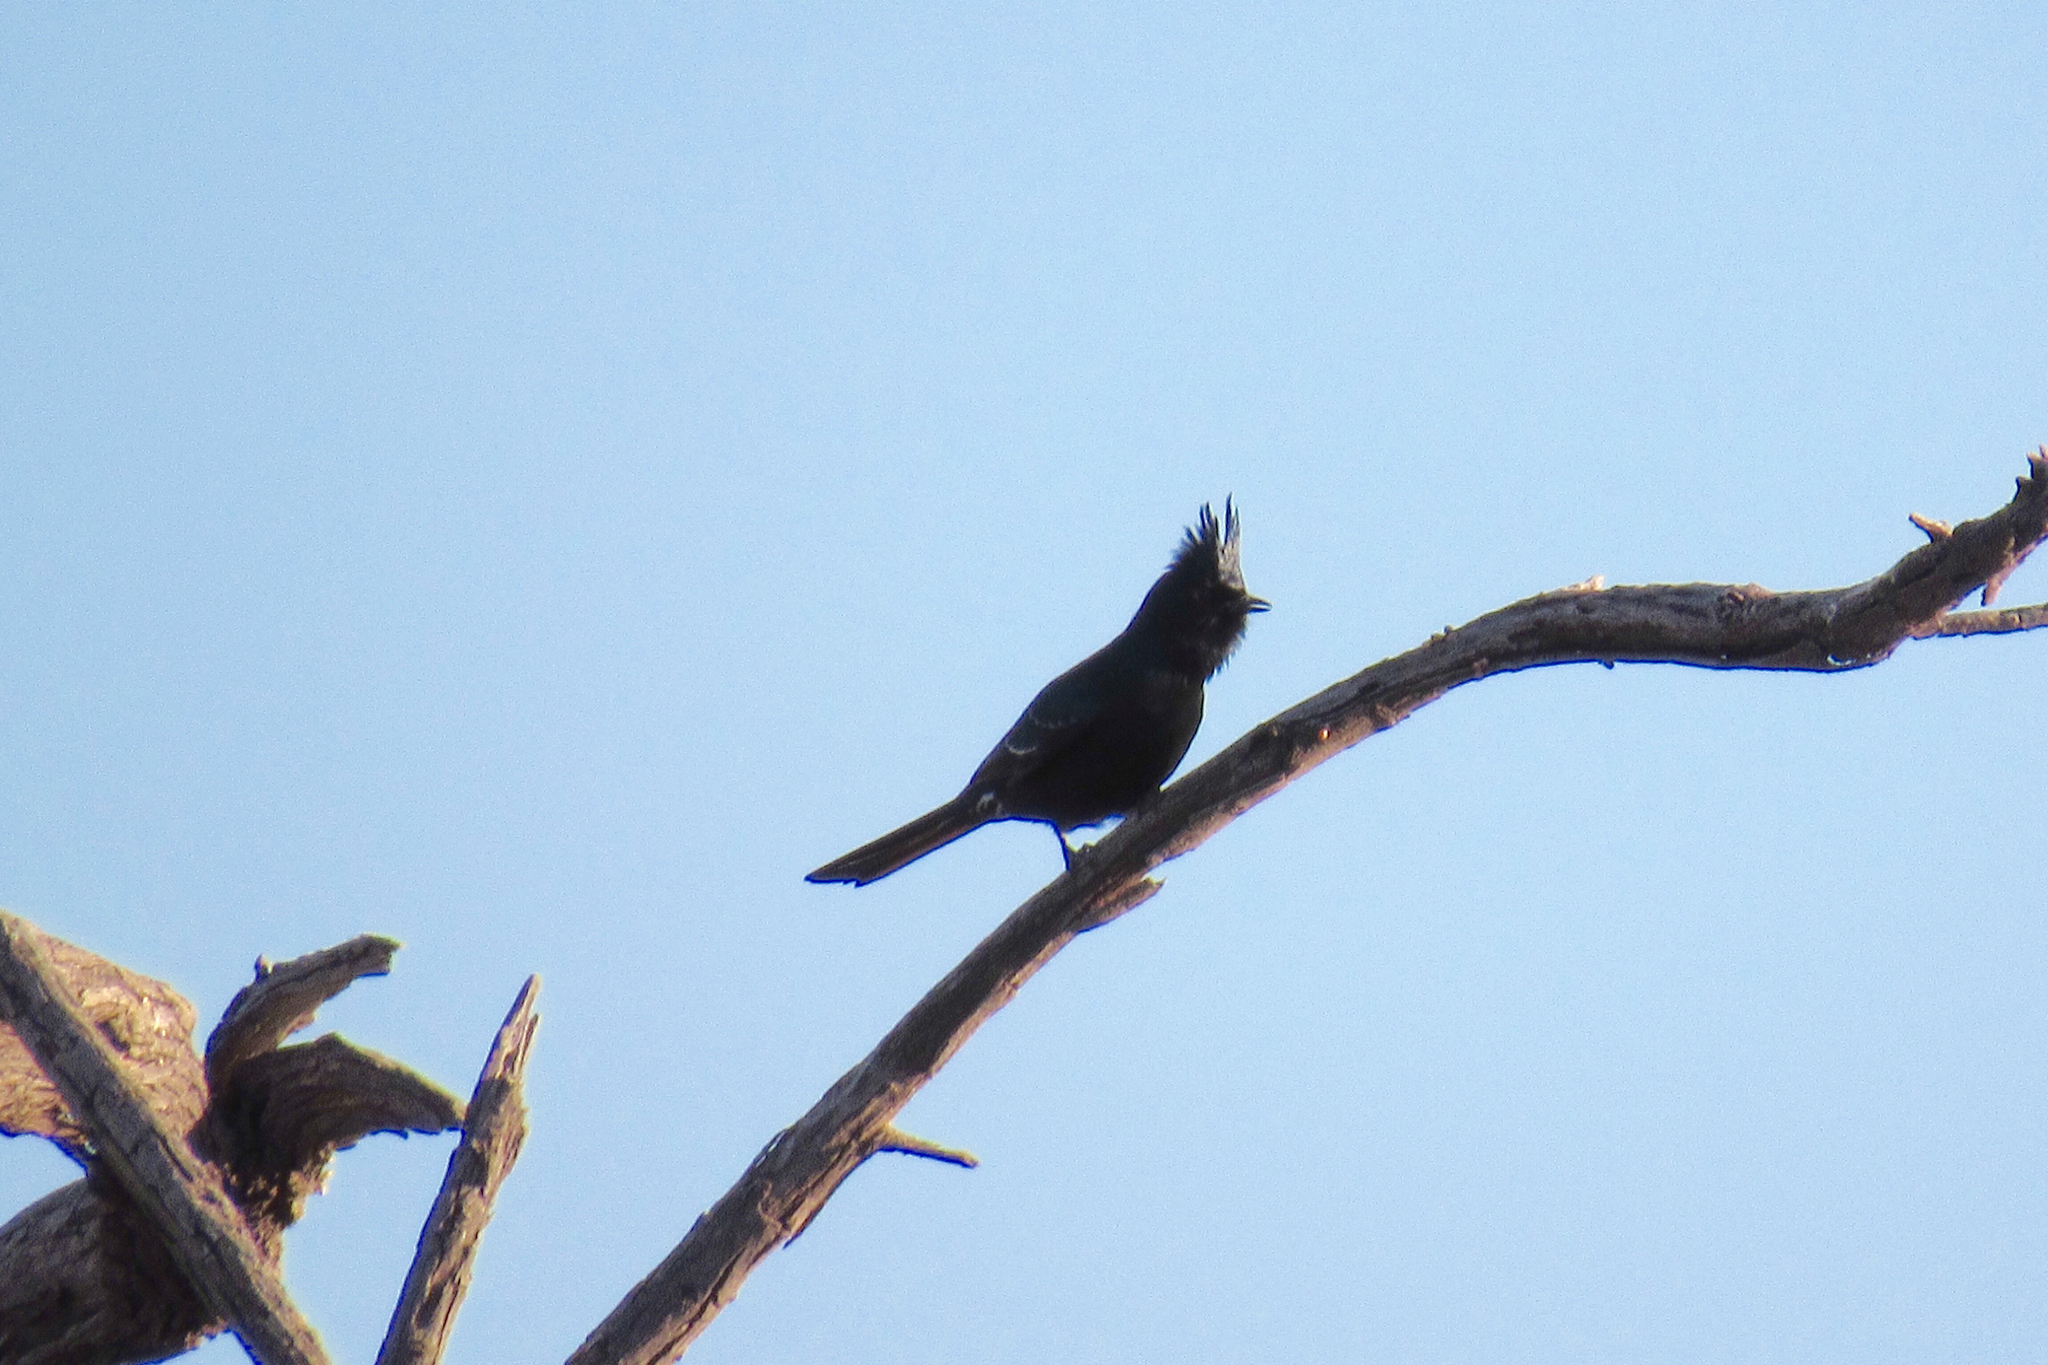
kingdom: Animalia
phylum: Chordata
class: Aves
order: Passeriformes
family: Ptilogonatidae
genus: Phainopepla
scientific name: Phainopepla nitens
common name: Phainopepla
